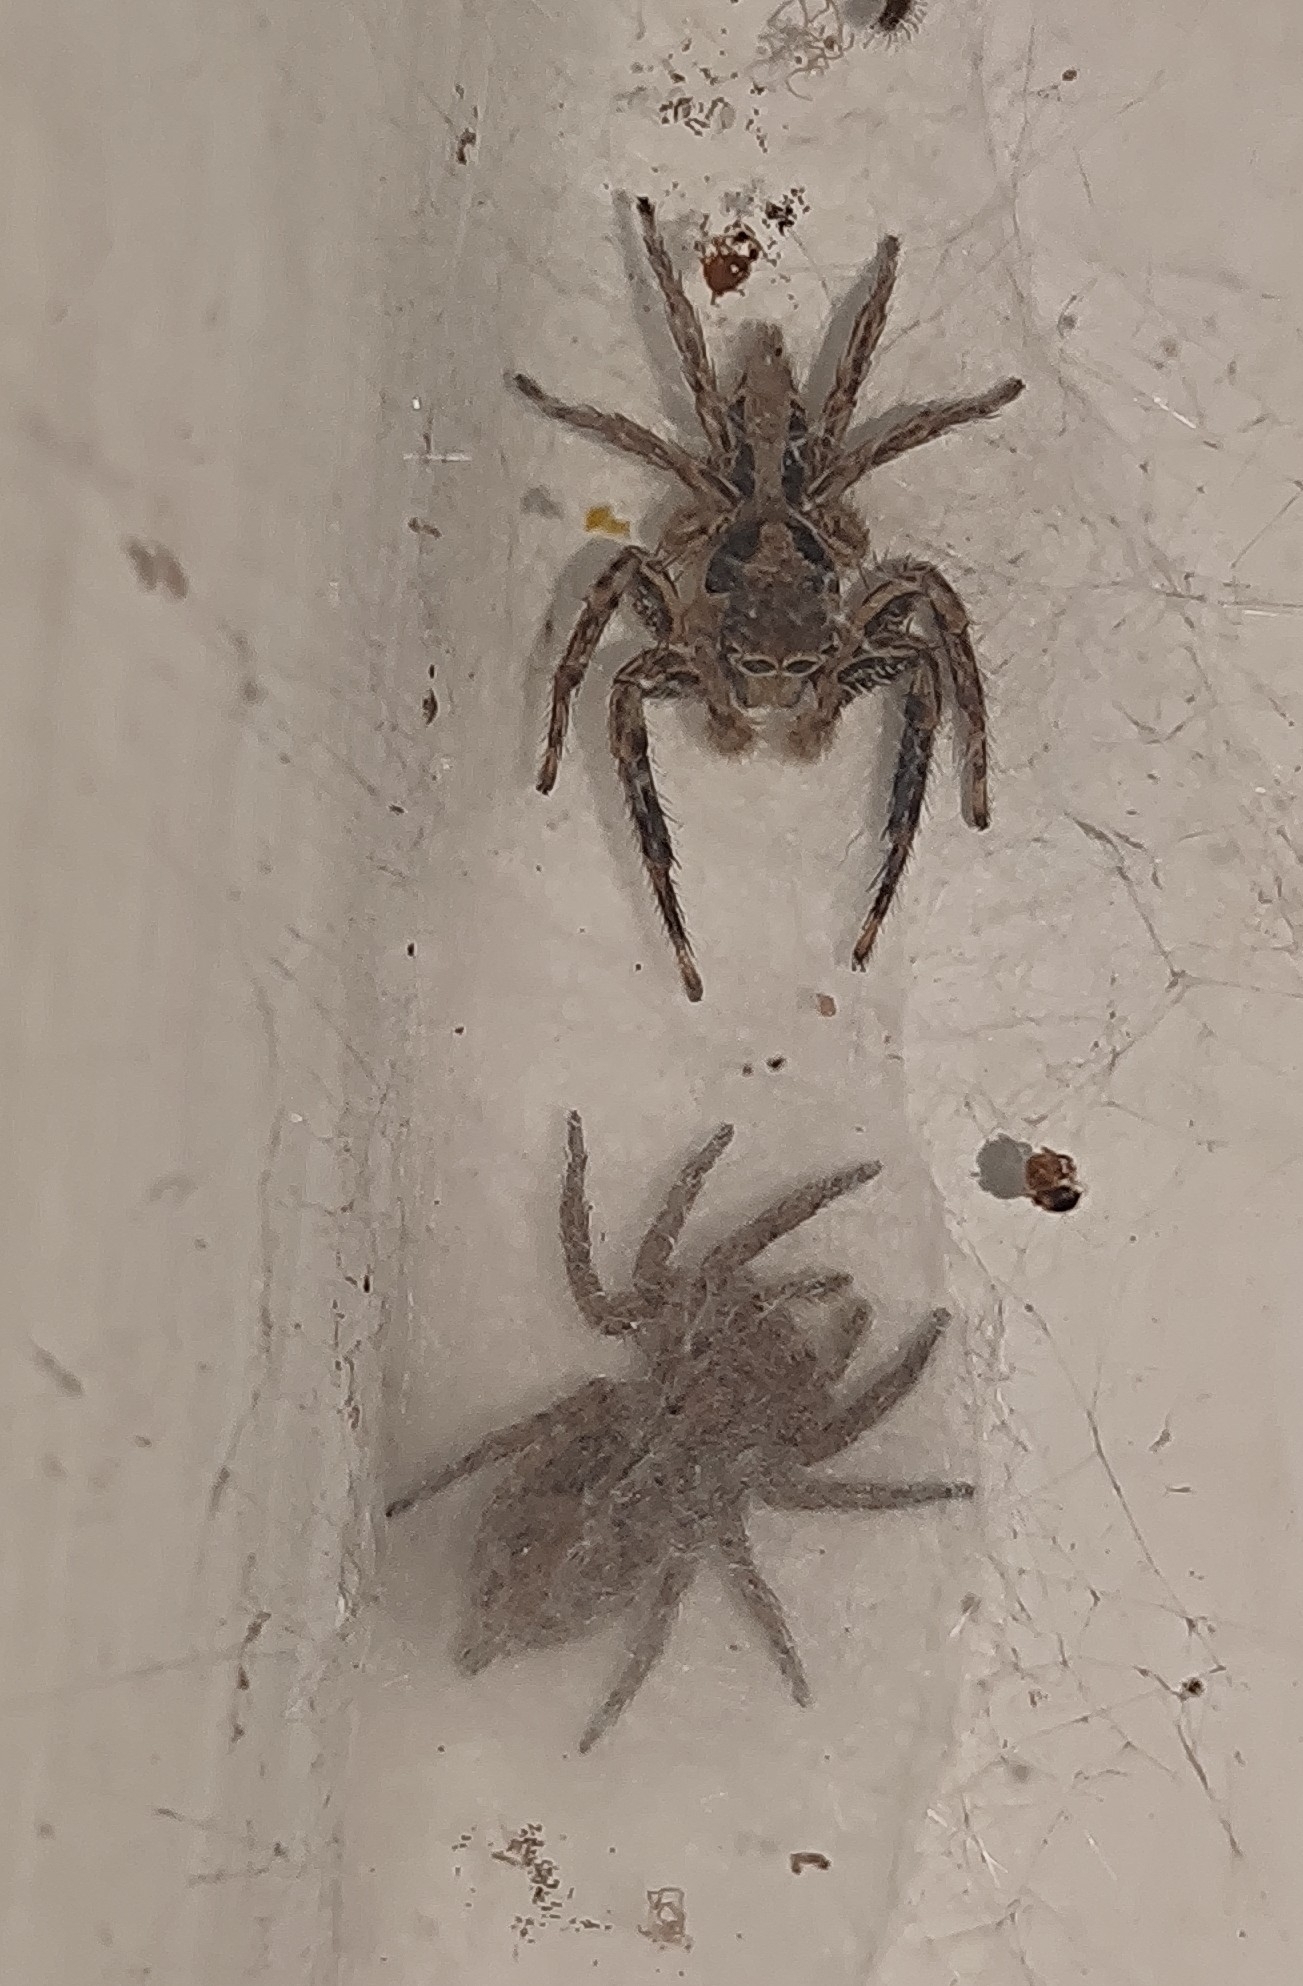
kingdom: Animalia
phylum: Arthropoda
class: Arachnida
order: Araneae
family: Salticidae
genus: Plexippus
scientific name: Plexippus petersi
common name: Jumping spider
